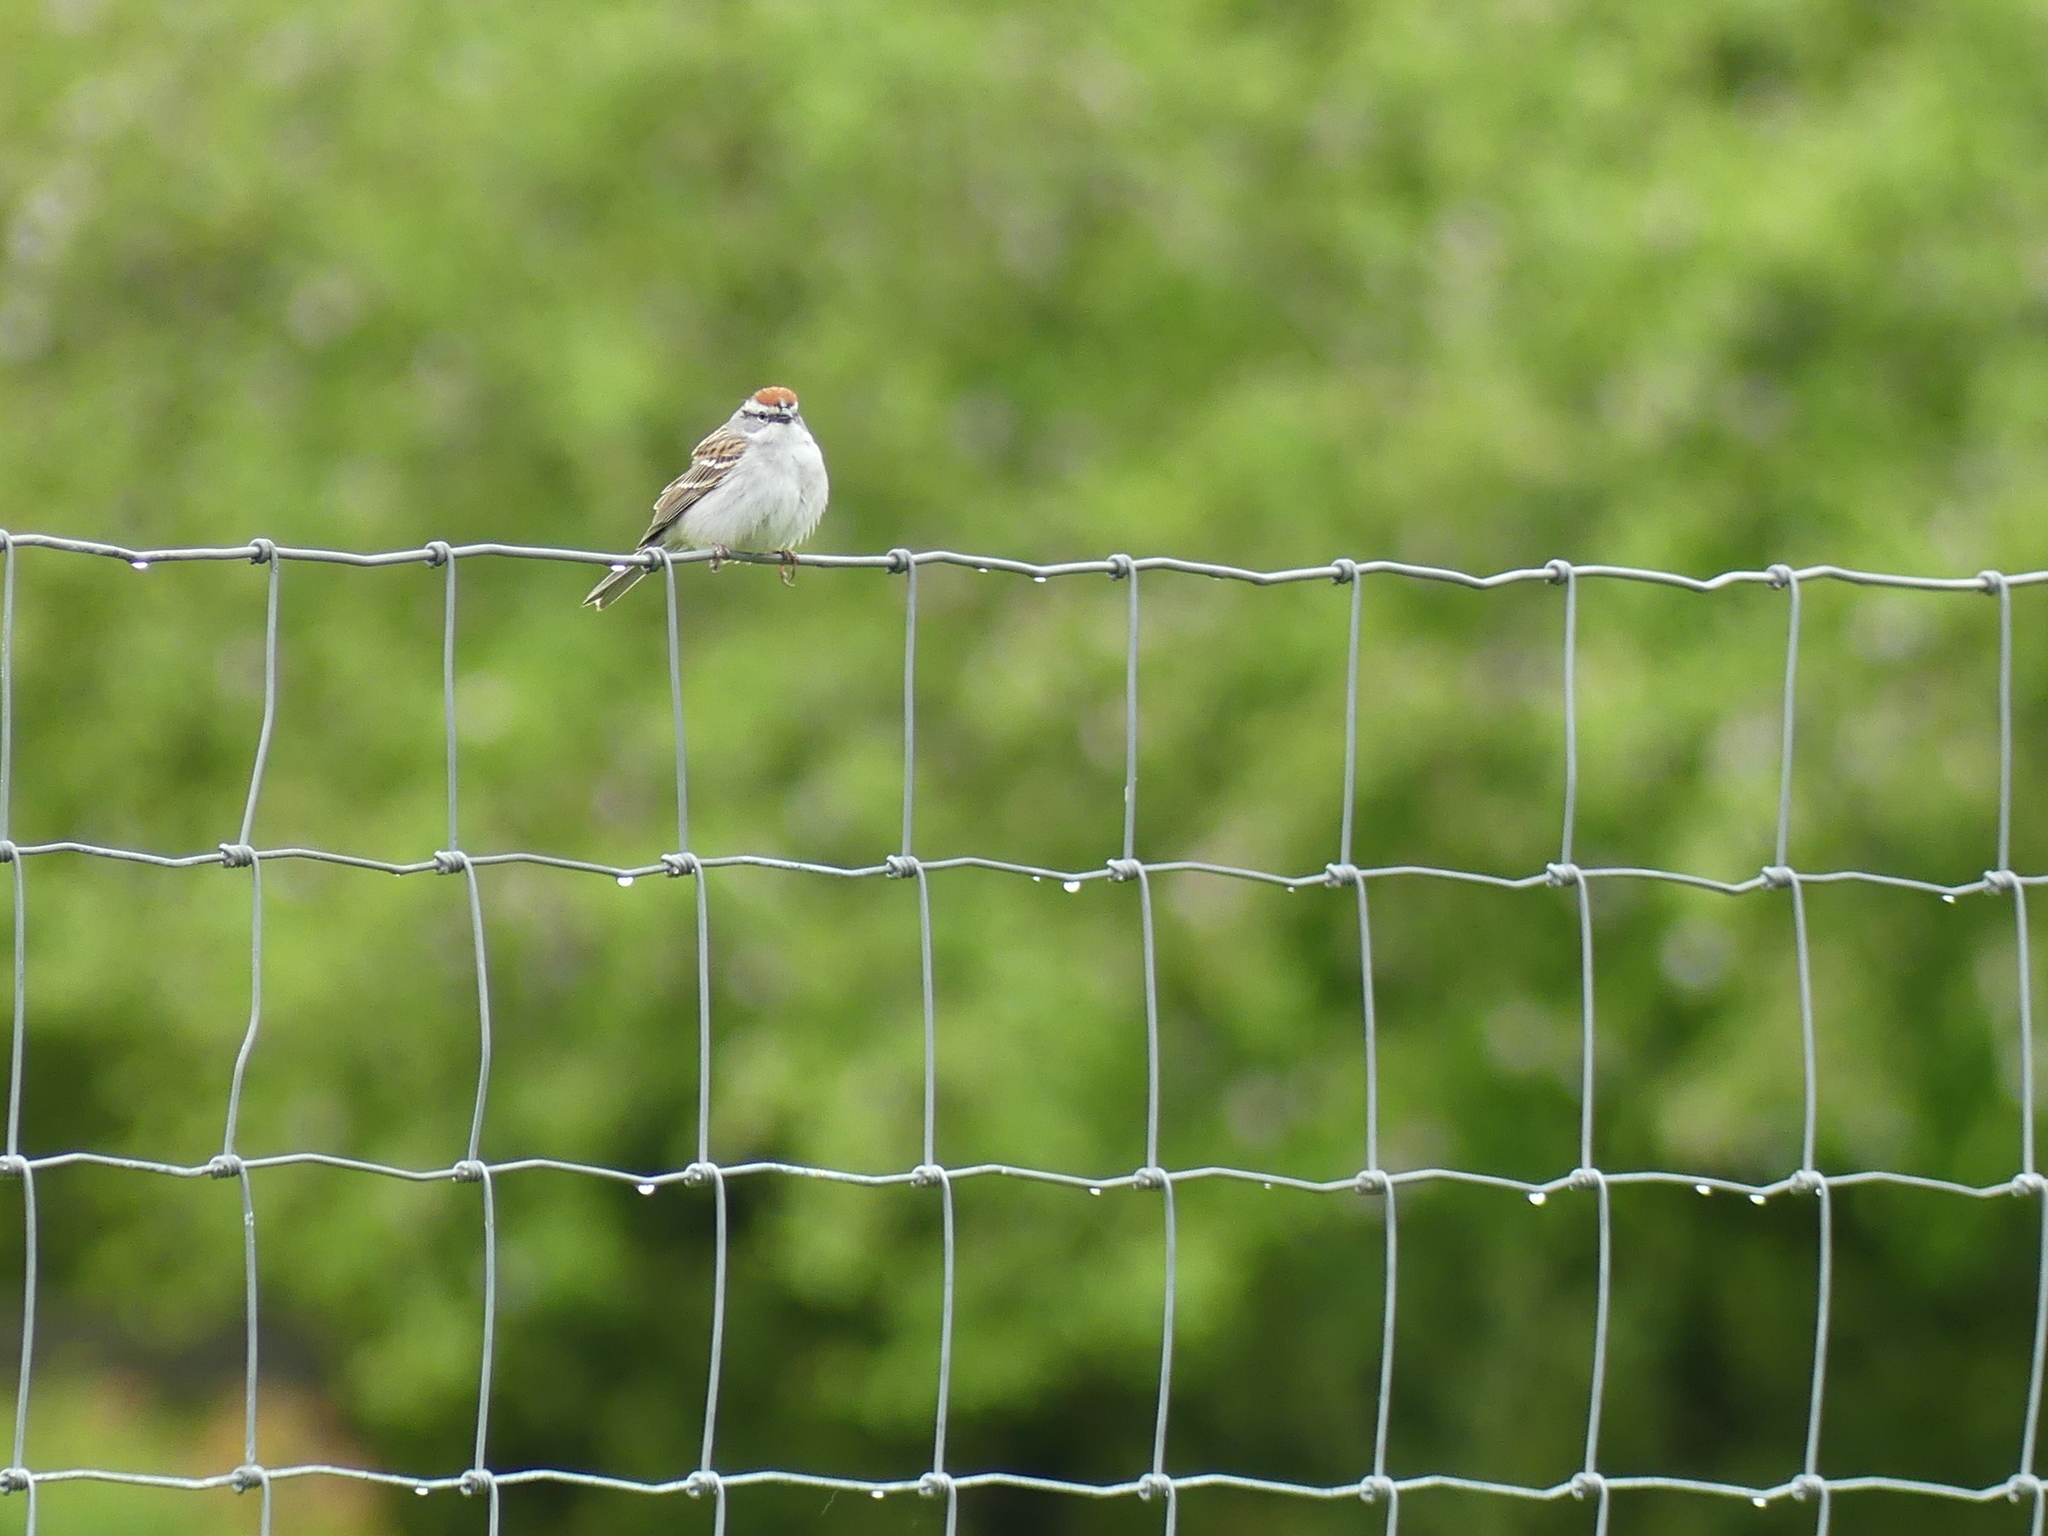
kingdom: Animalia
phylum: Chordata
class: Aves
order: Passeriformes
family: Passerellidae
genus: Spizella
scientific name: Spizella passerina
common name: Chipping sparrow
